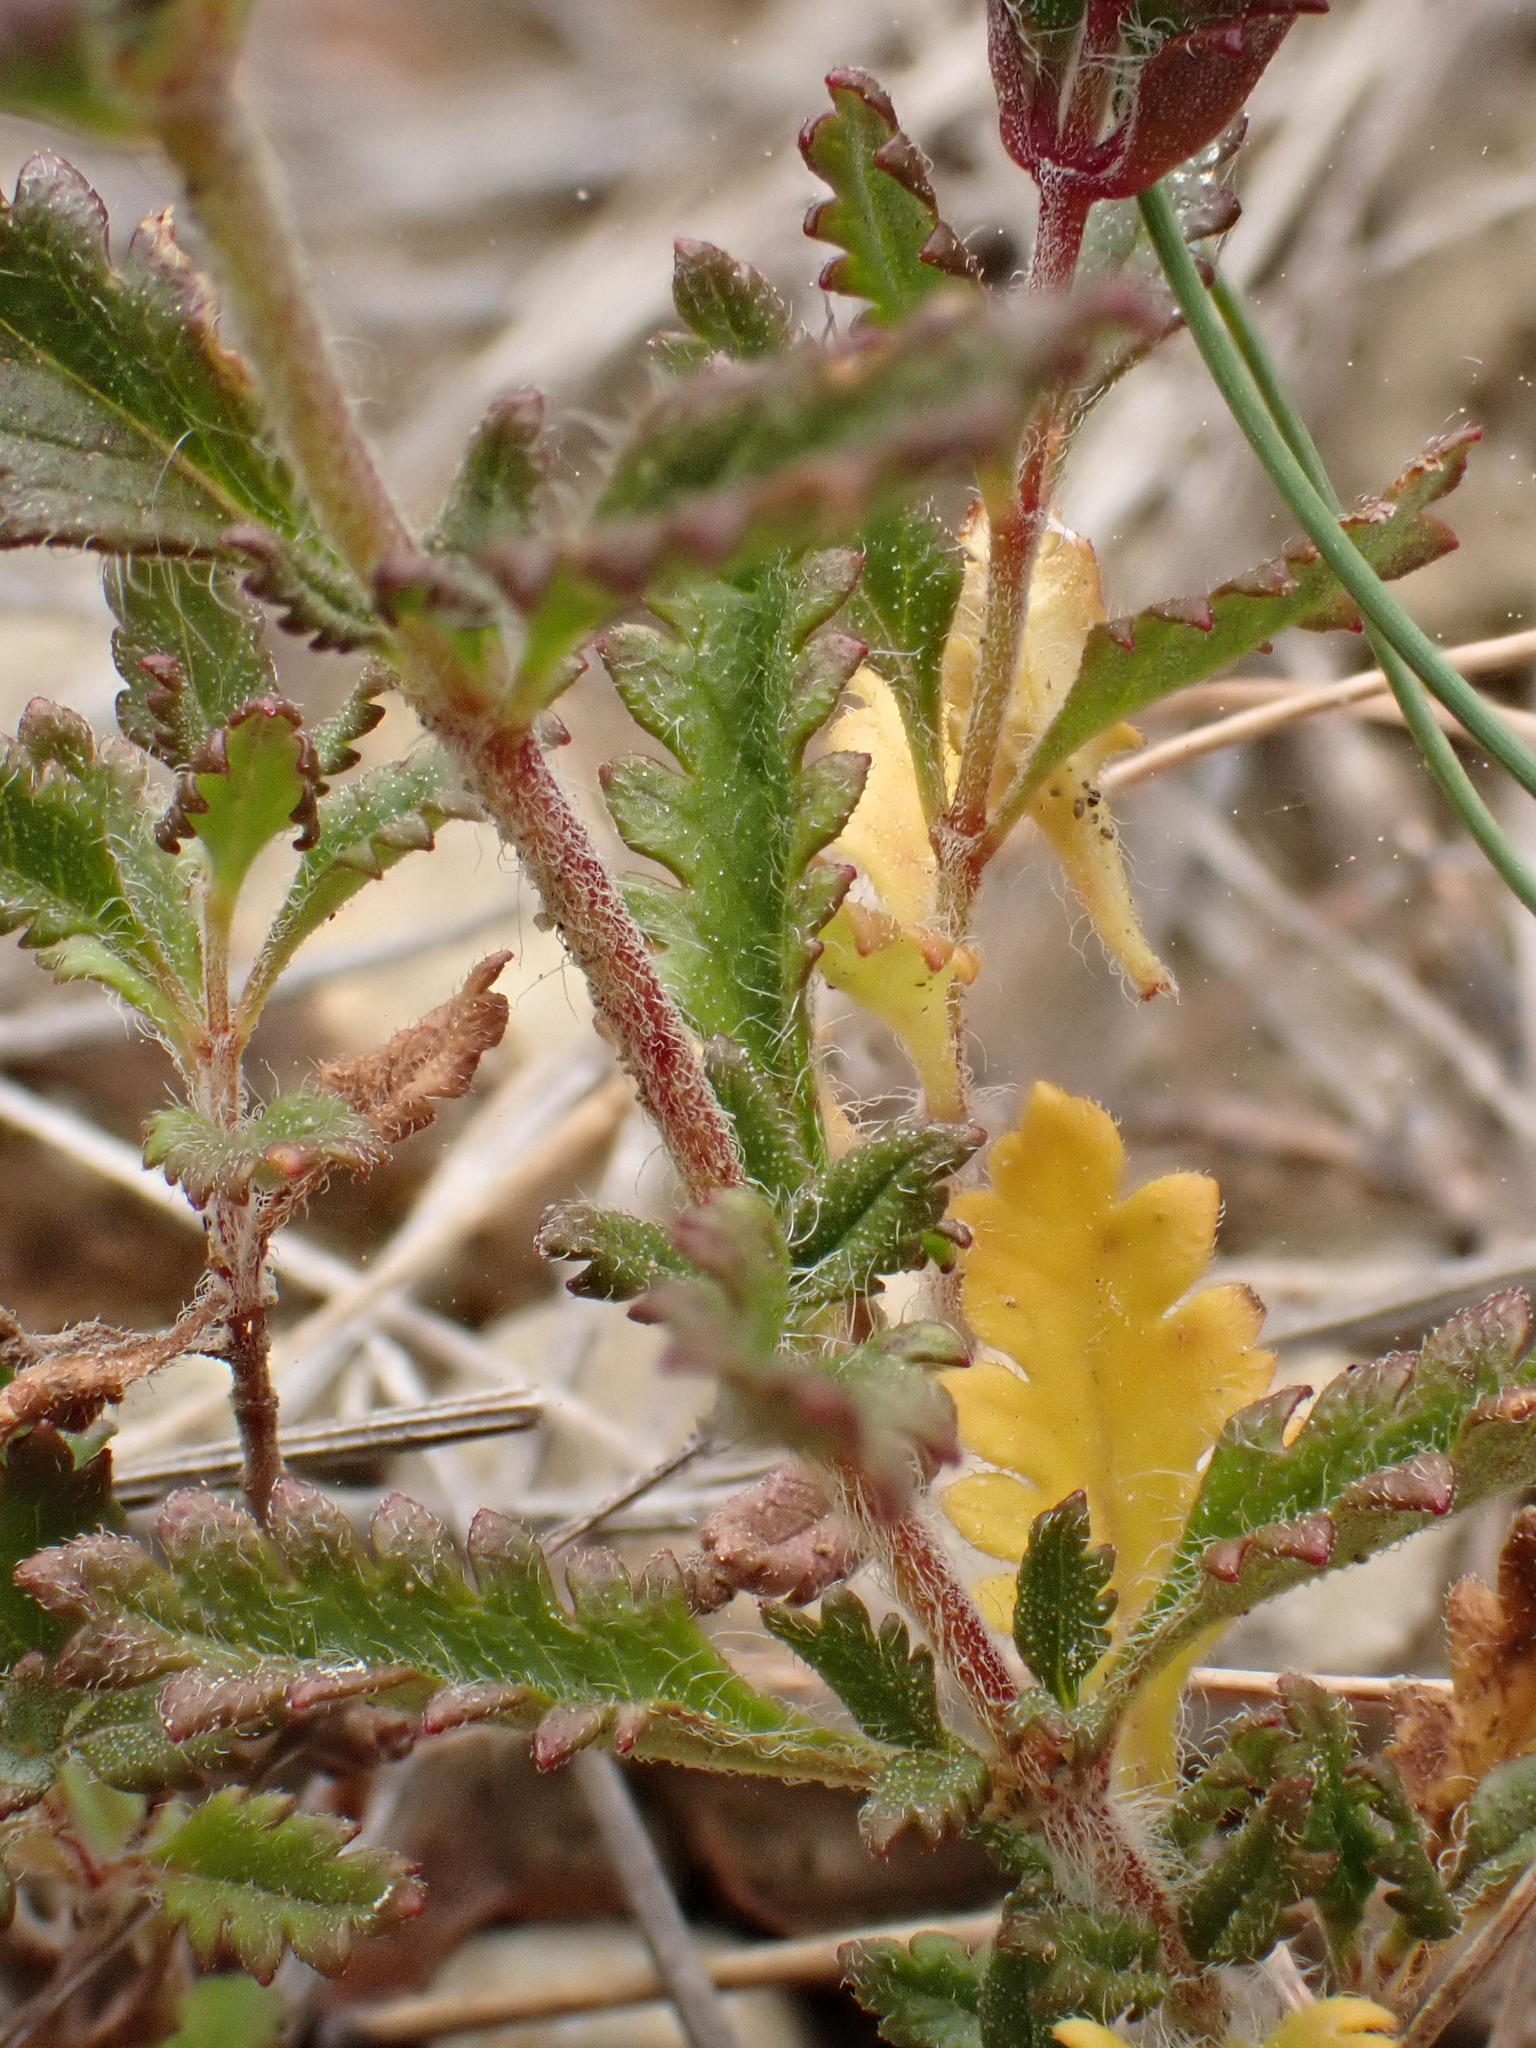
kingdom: Plantae
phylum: Tracheophyta
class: Magnoliopsida
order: Lamiales
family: Lamiaceae
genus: Teucrium
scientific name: Teucrium chamaedrys
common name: Wall germander
